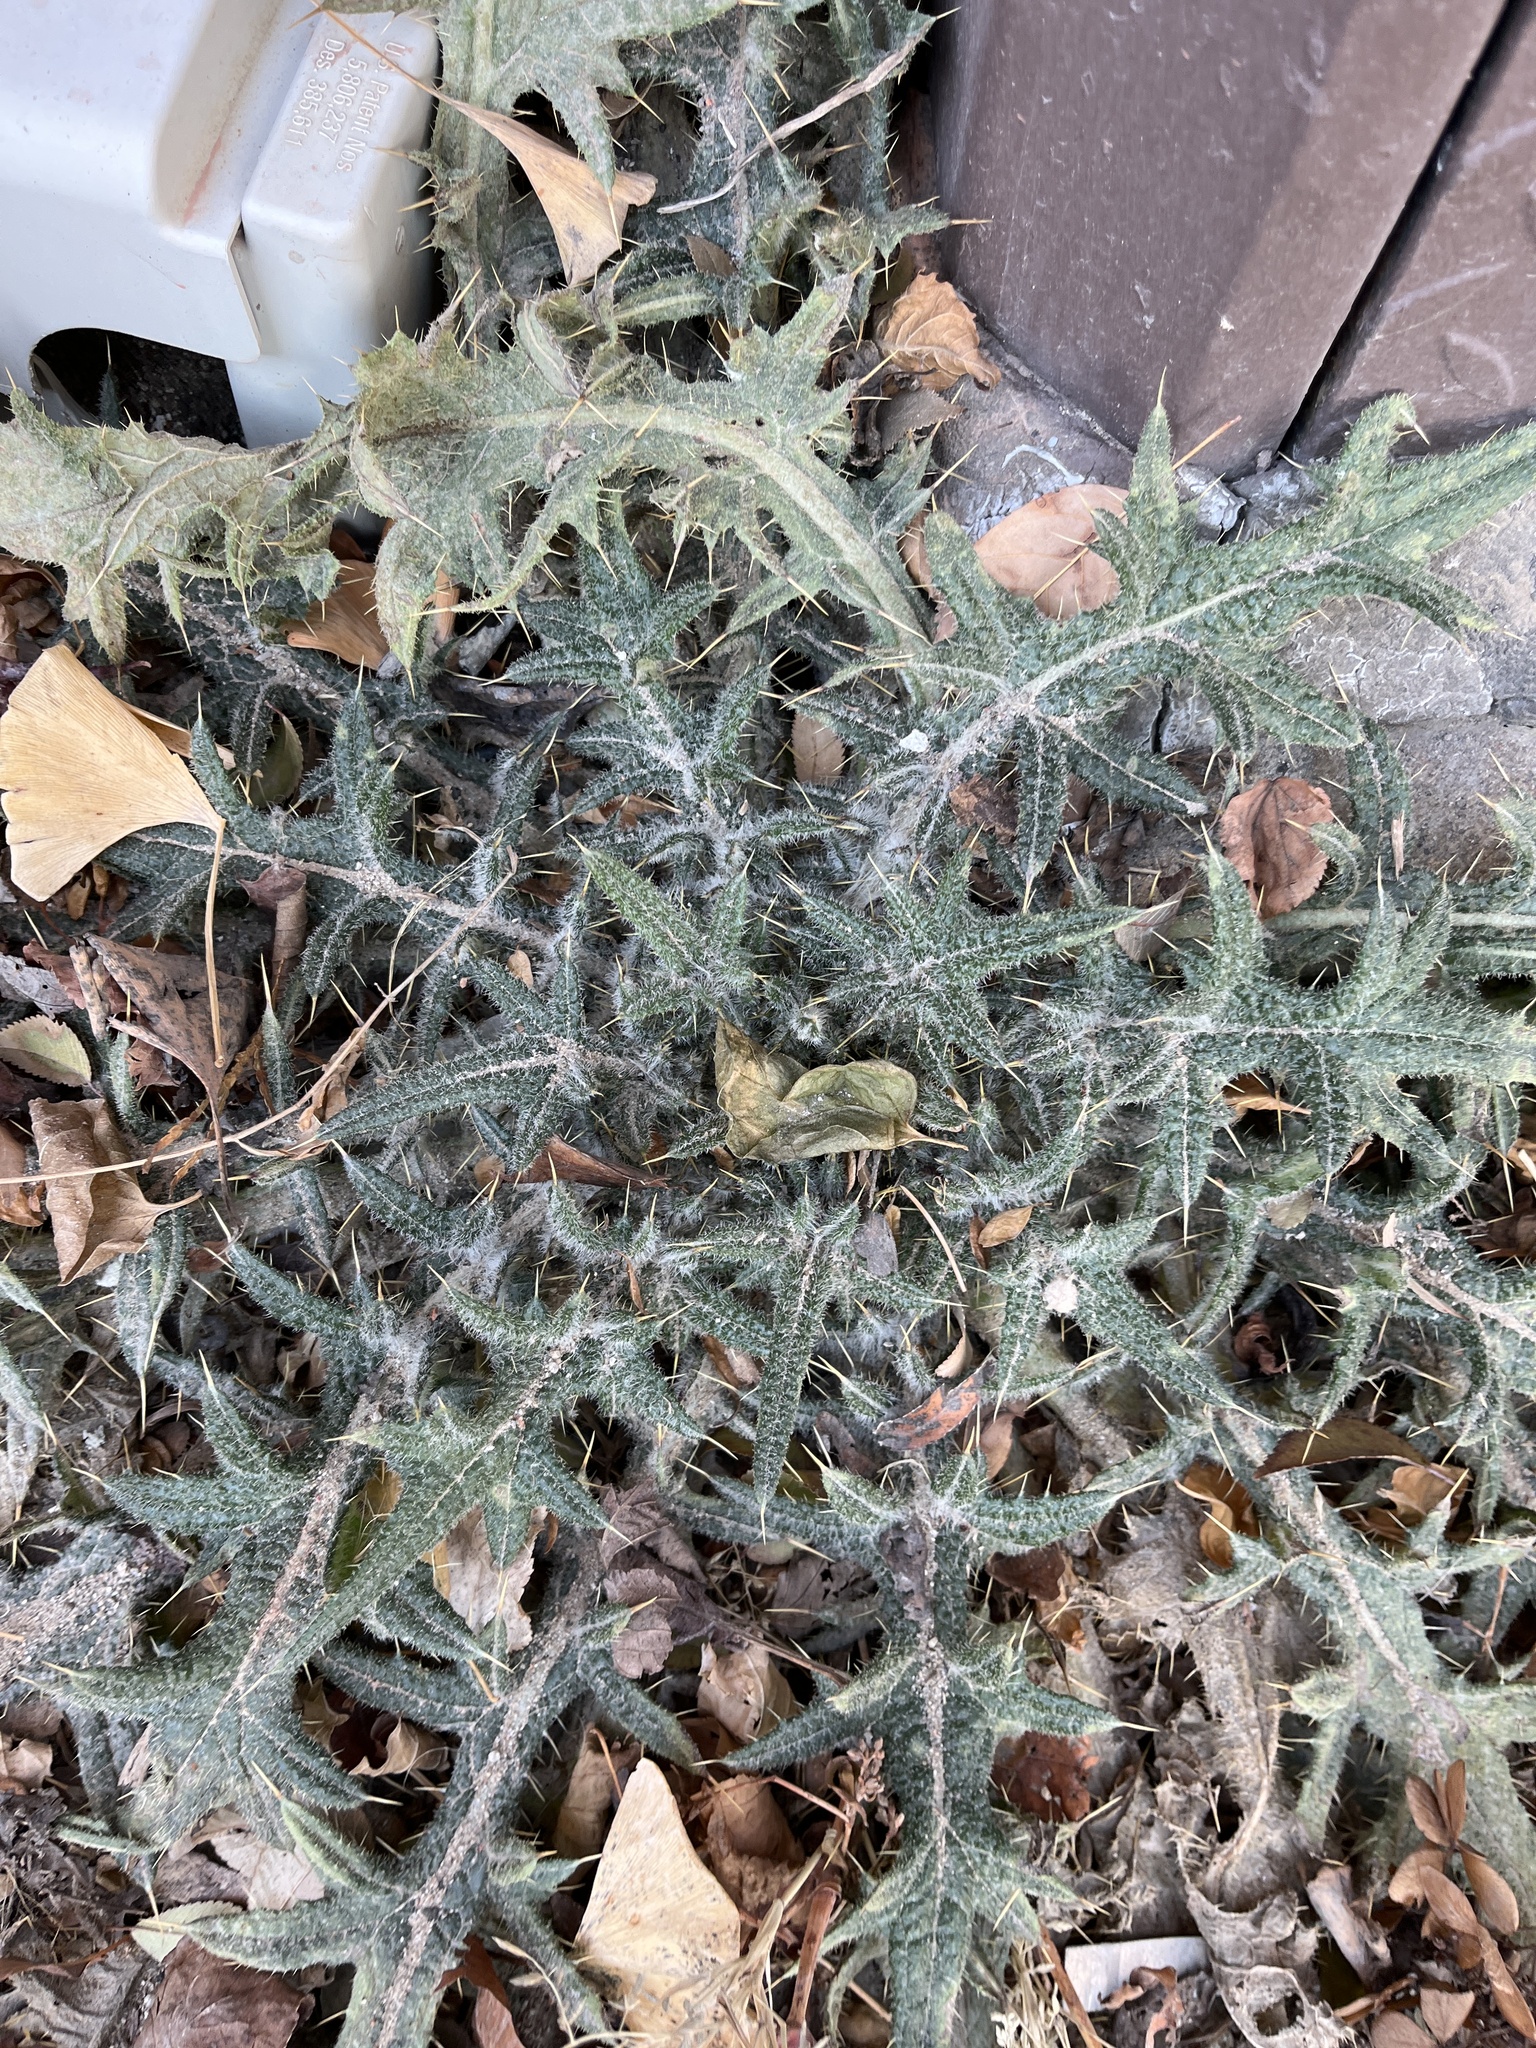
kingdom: Plantae
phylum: Tracheophyta
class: Magnoliopsida
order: Asterales
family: Asteraceae
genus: Cirsium
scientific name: Cirsium vulgare
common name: Bull thistle
